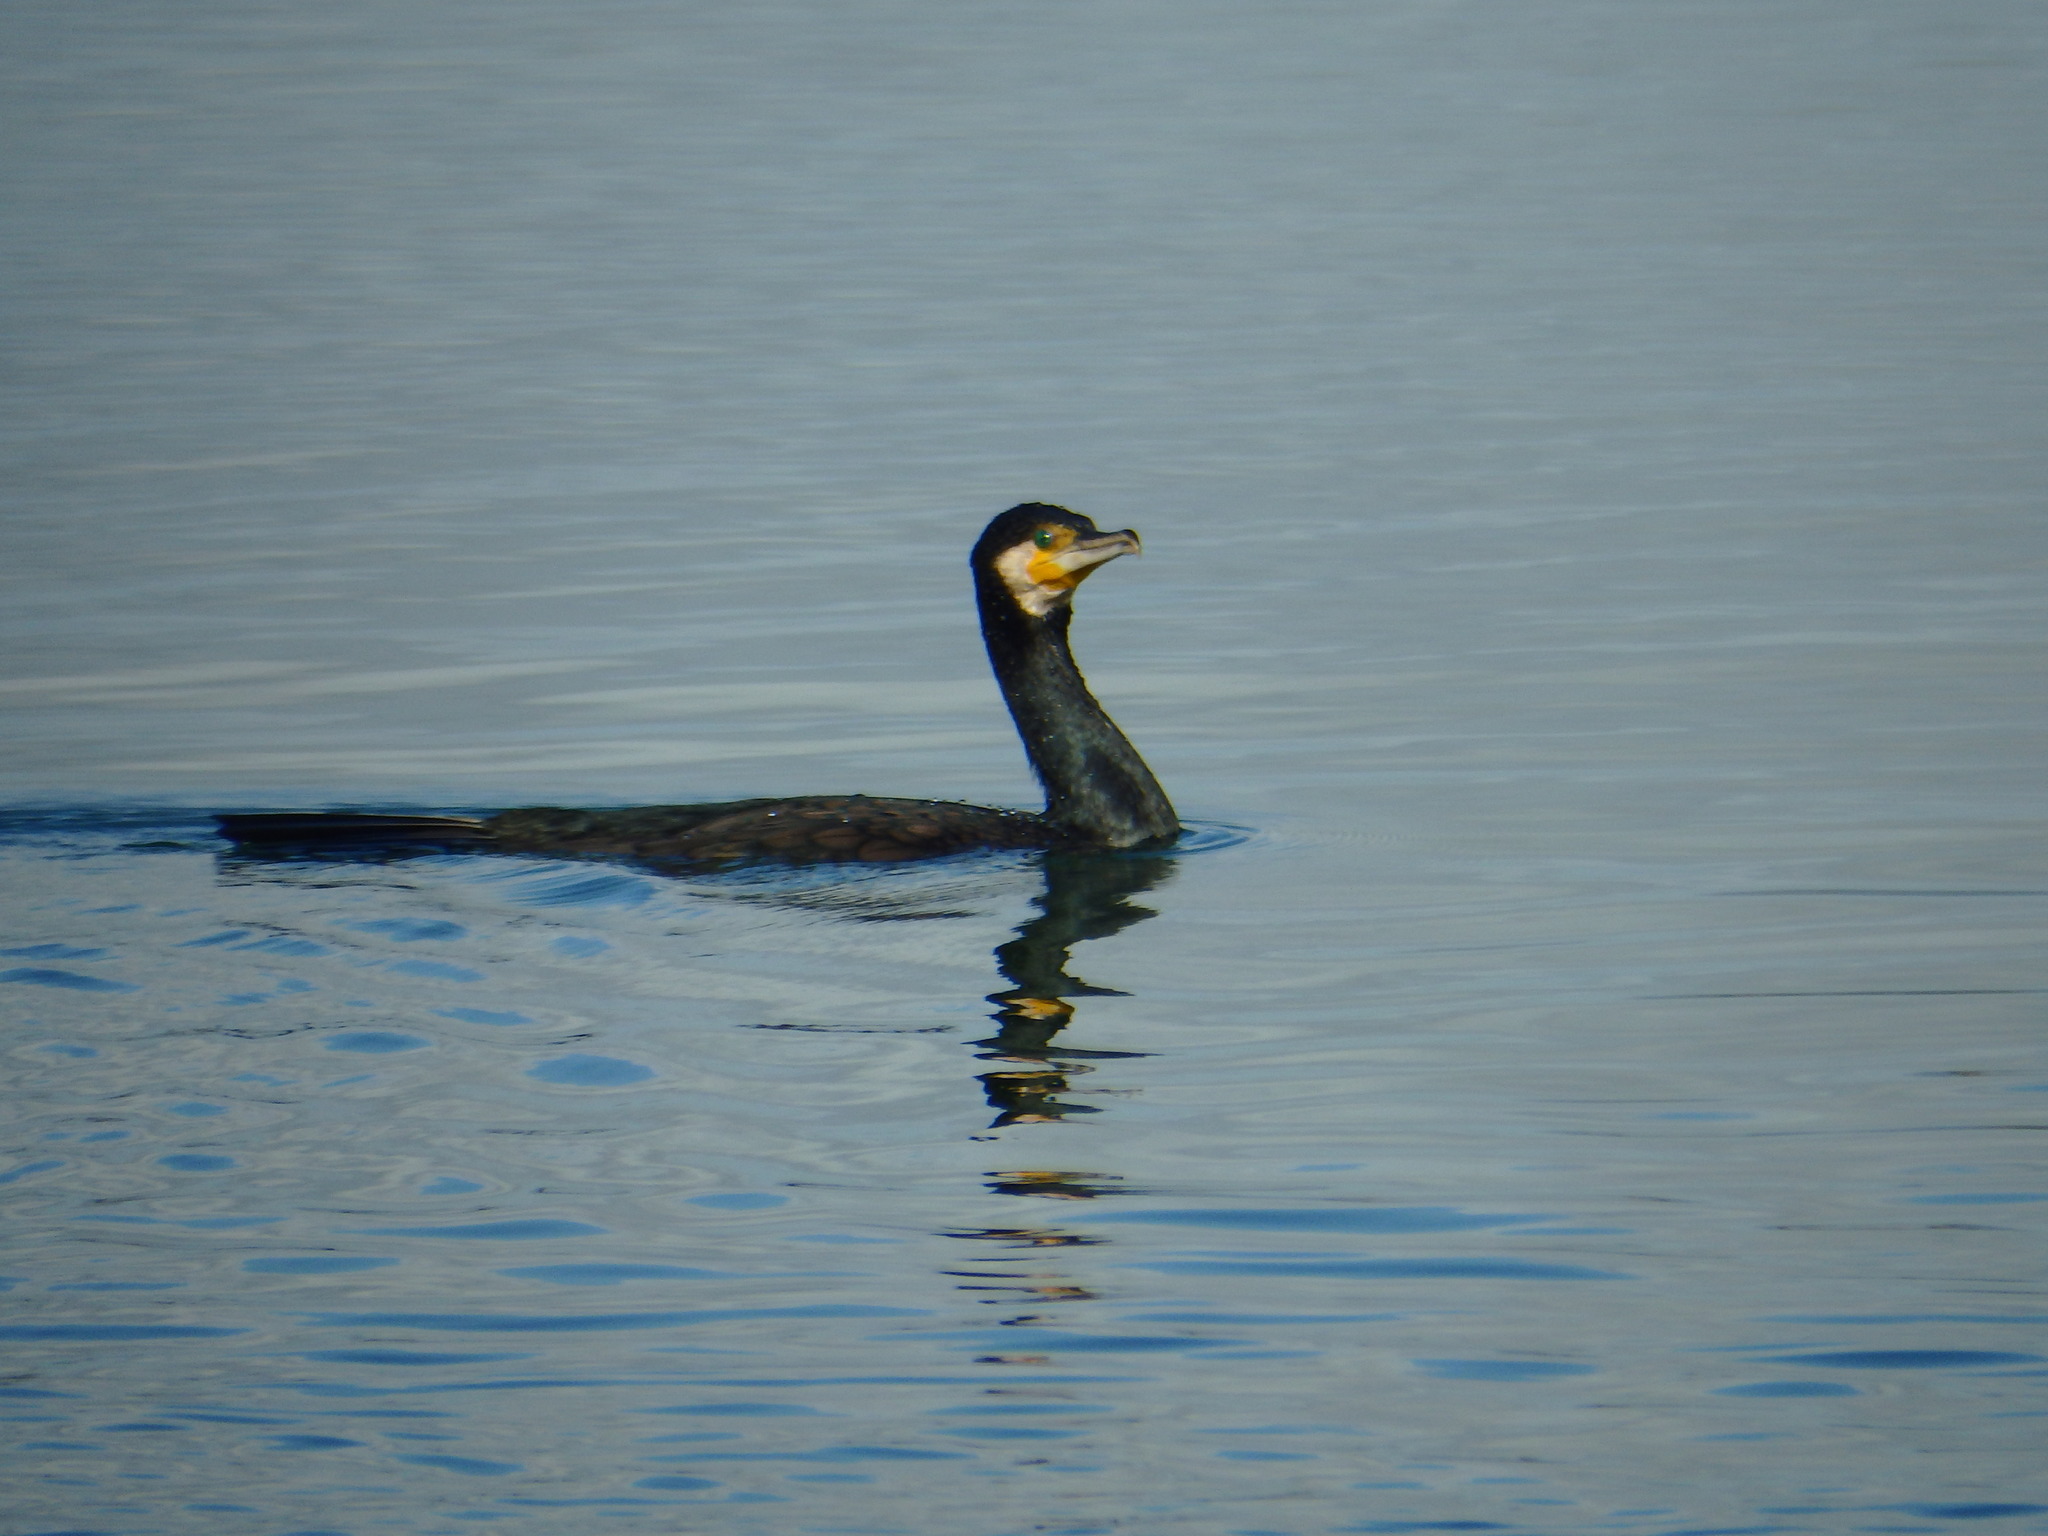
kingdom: Animalia
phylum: Chordata
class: Aves
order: Suliformes
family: Phalacrocoracidae
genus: Phalacrocorax
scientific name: Phalacrocorax carbo
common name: Great cormorant
